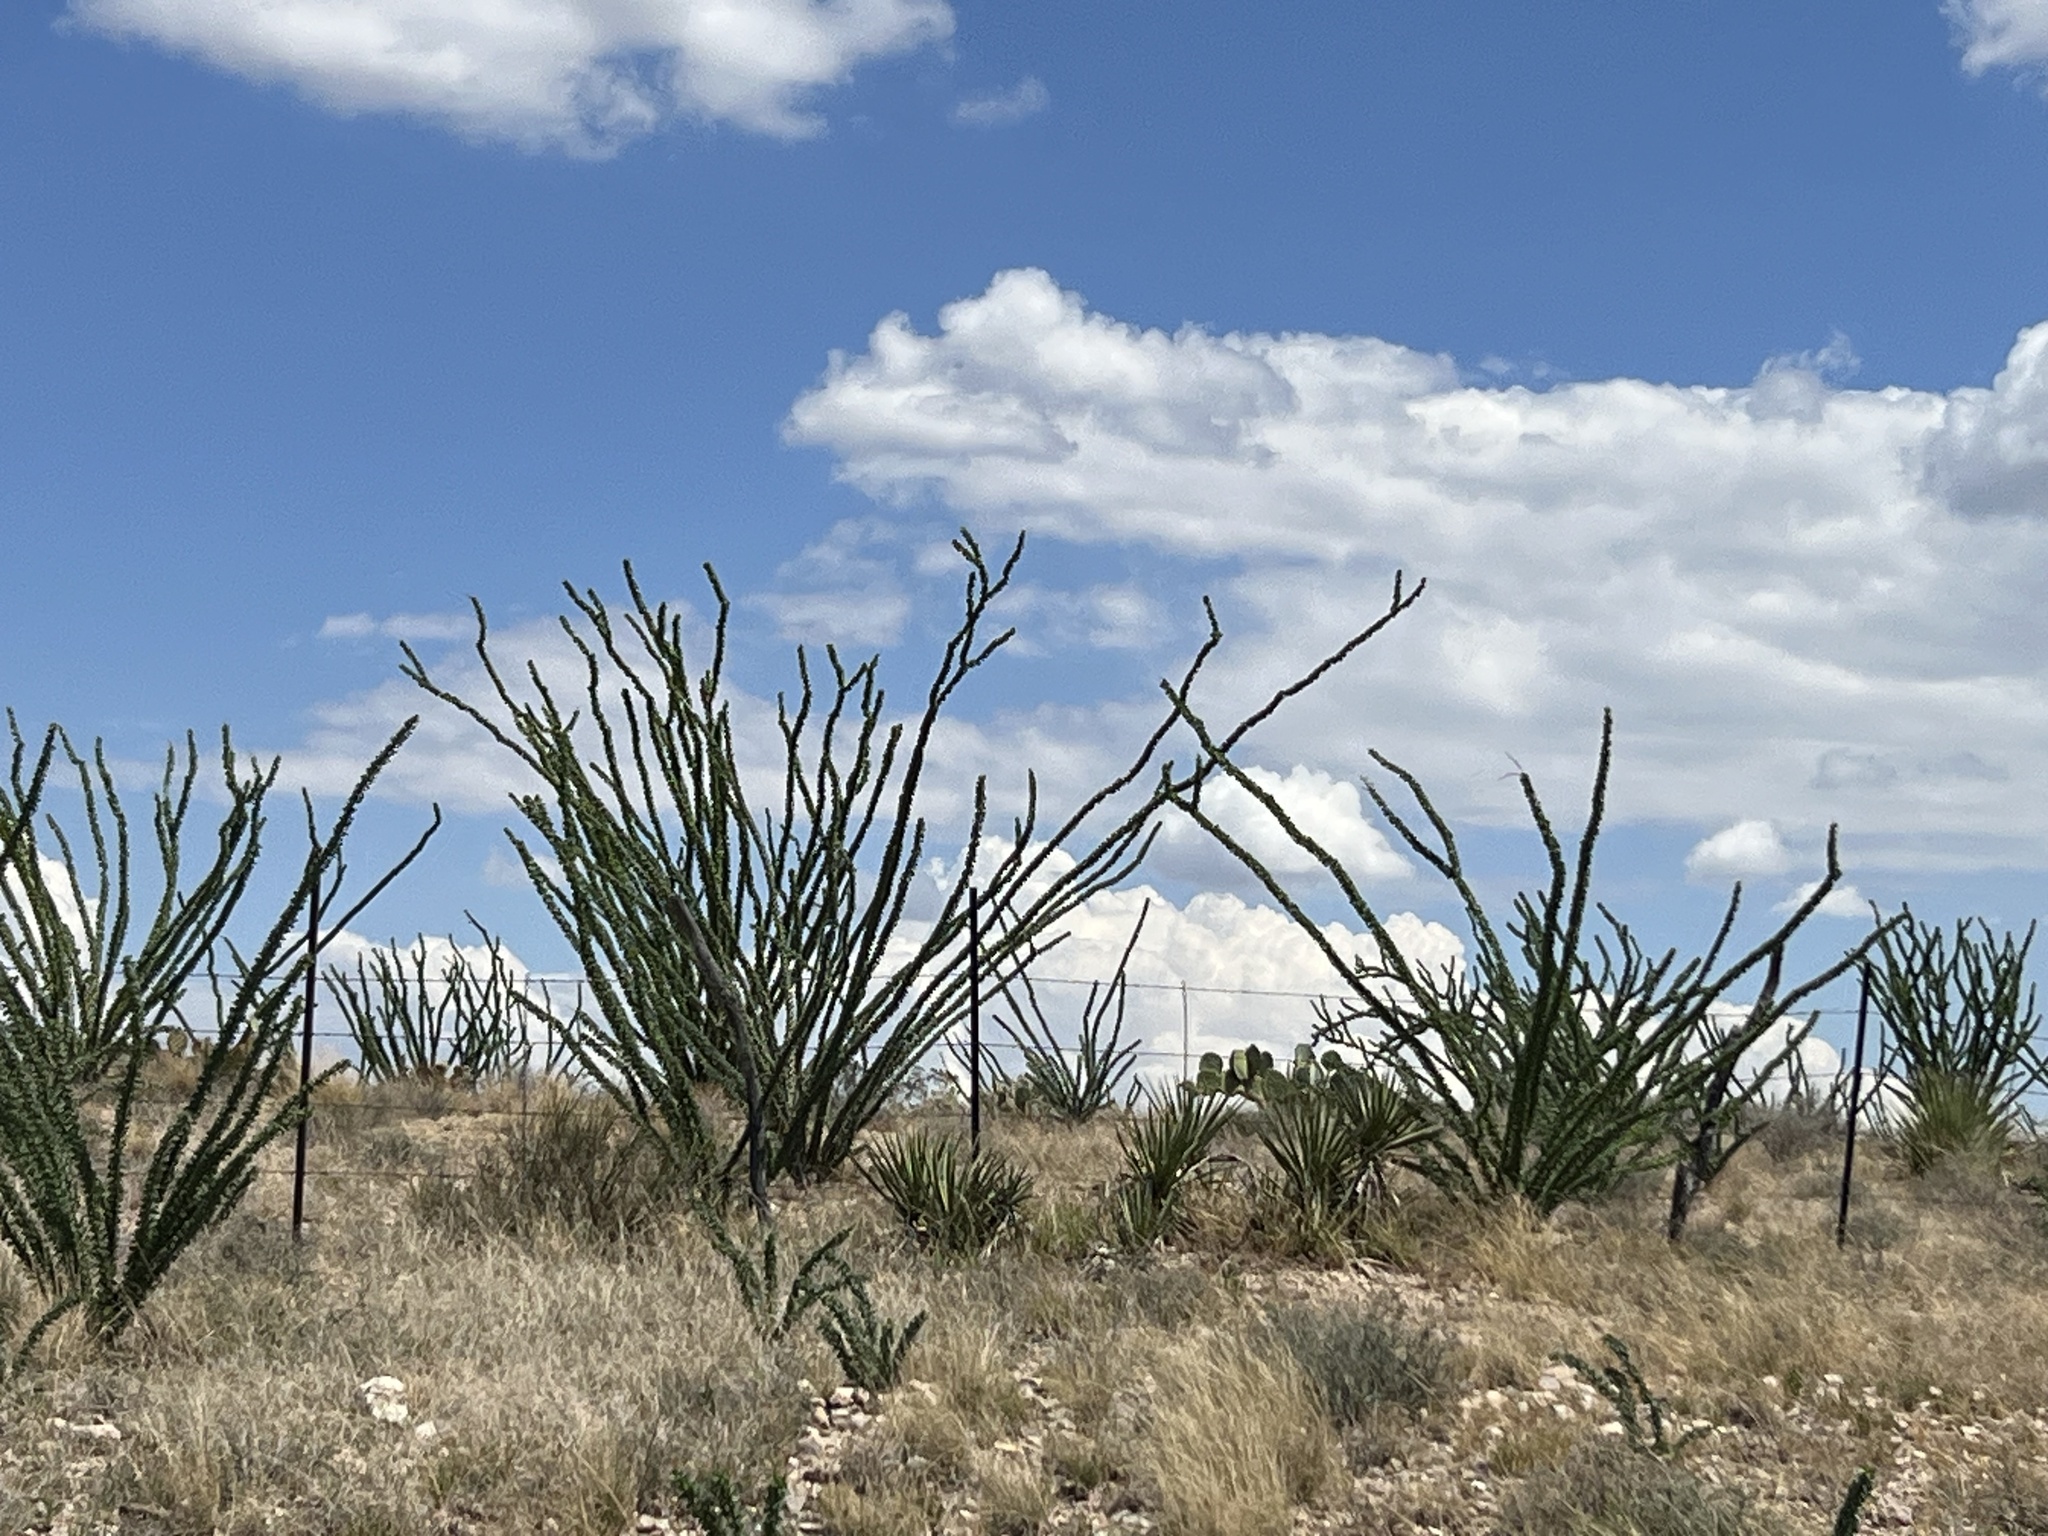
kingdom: Plantae
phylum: Tracheophyta
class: Magnoliopsida
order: Ericales
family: Fouquieriaceae
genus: Fouquieria
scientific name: Fouquieria splendens
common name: Vine-cactus
